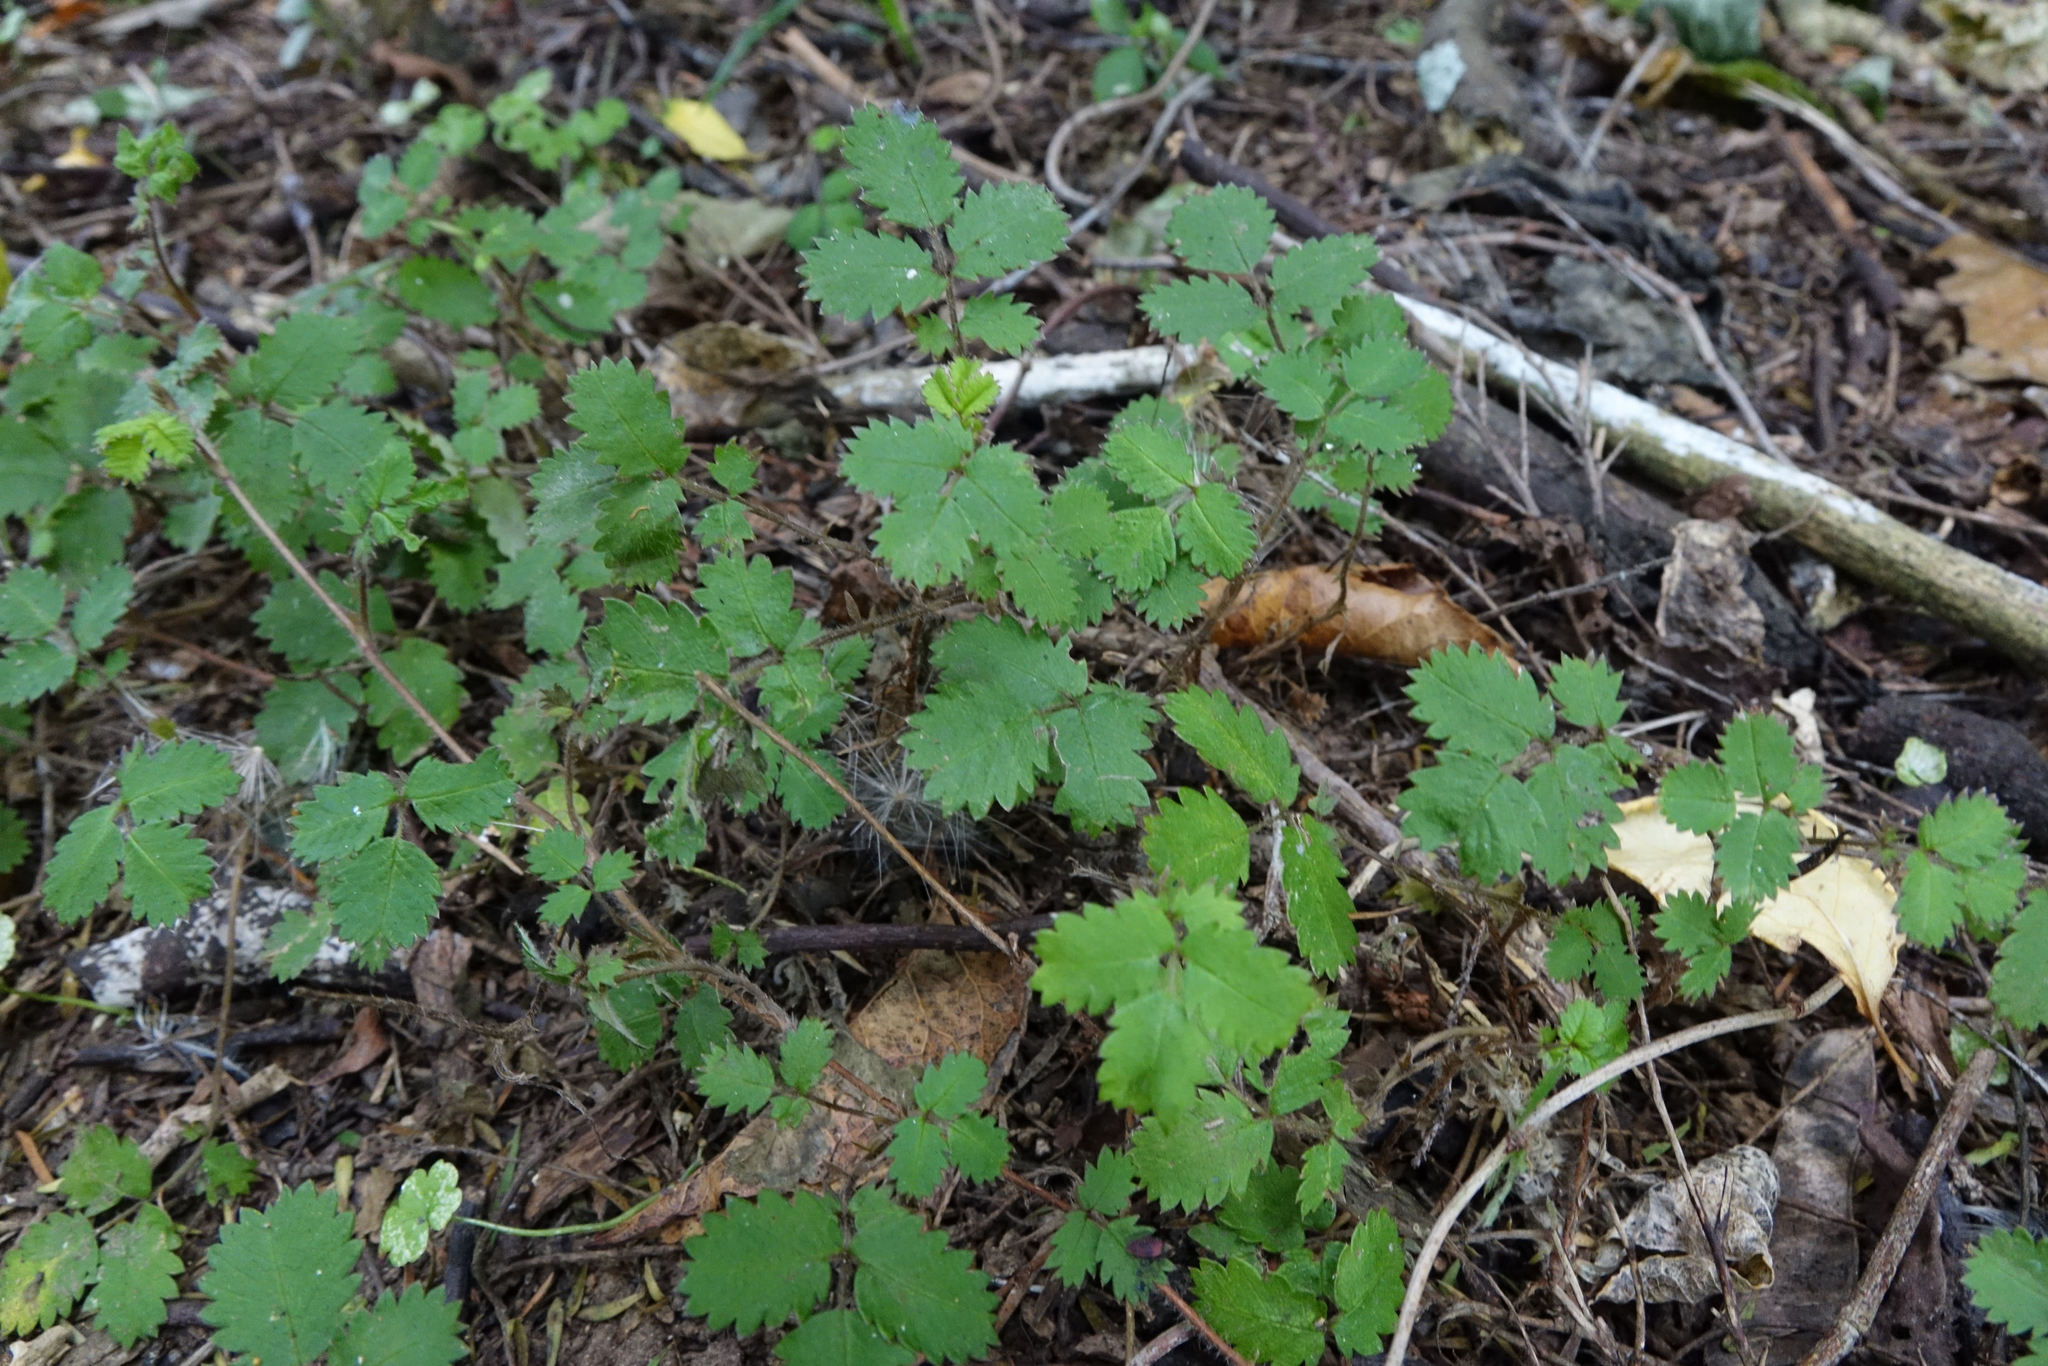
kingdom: Plantae
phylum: Tracheophyta
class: Magnoliopsida
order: Rosales
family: Rosaceae
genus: Acaena
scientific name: Acaena juvenca
